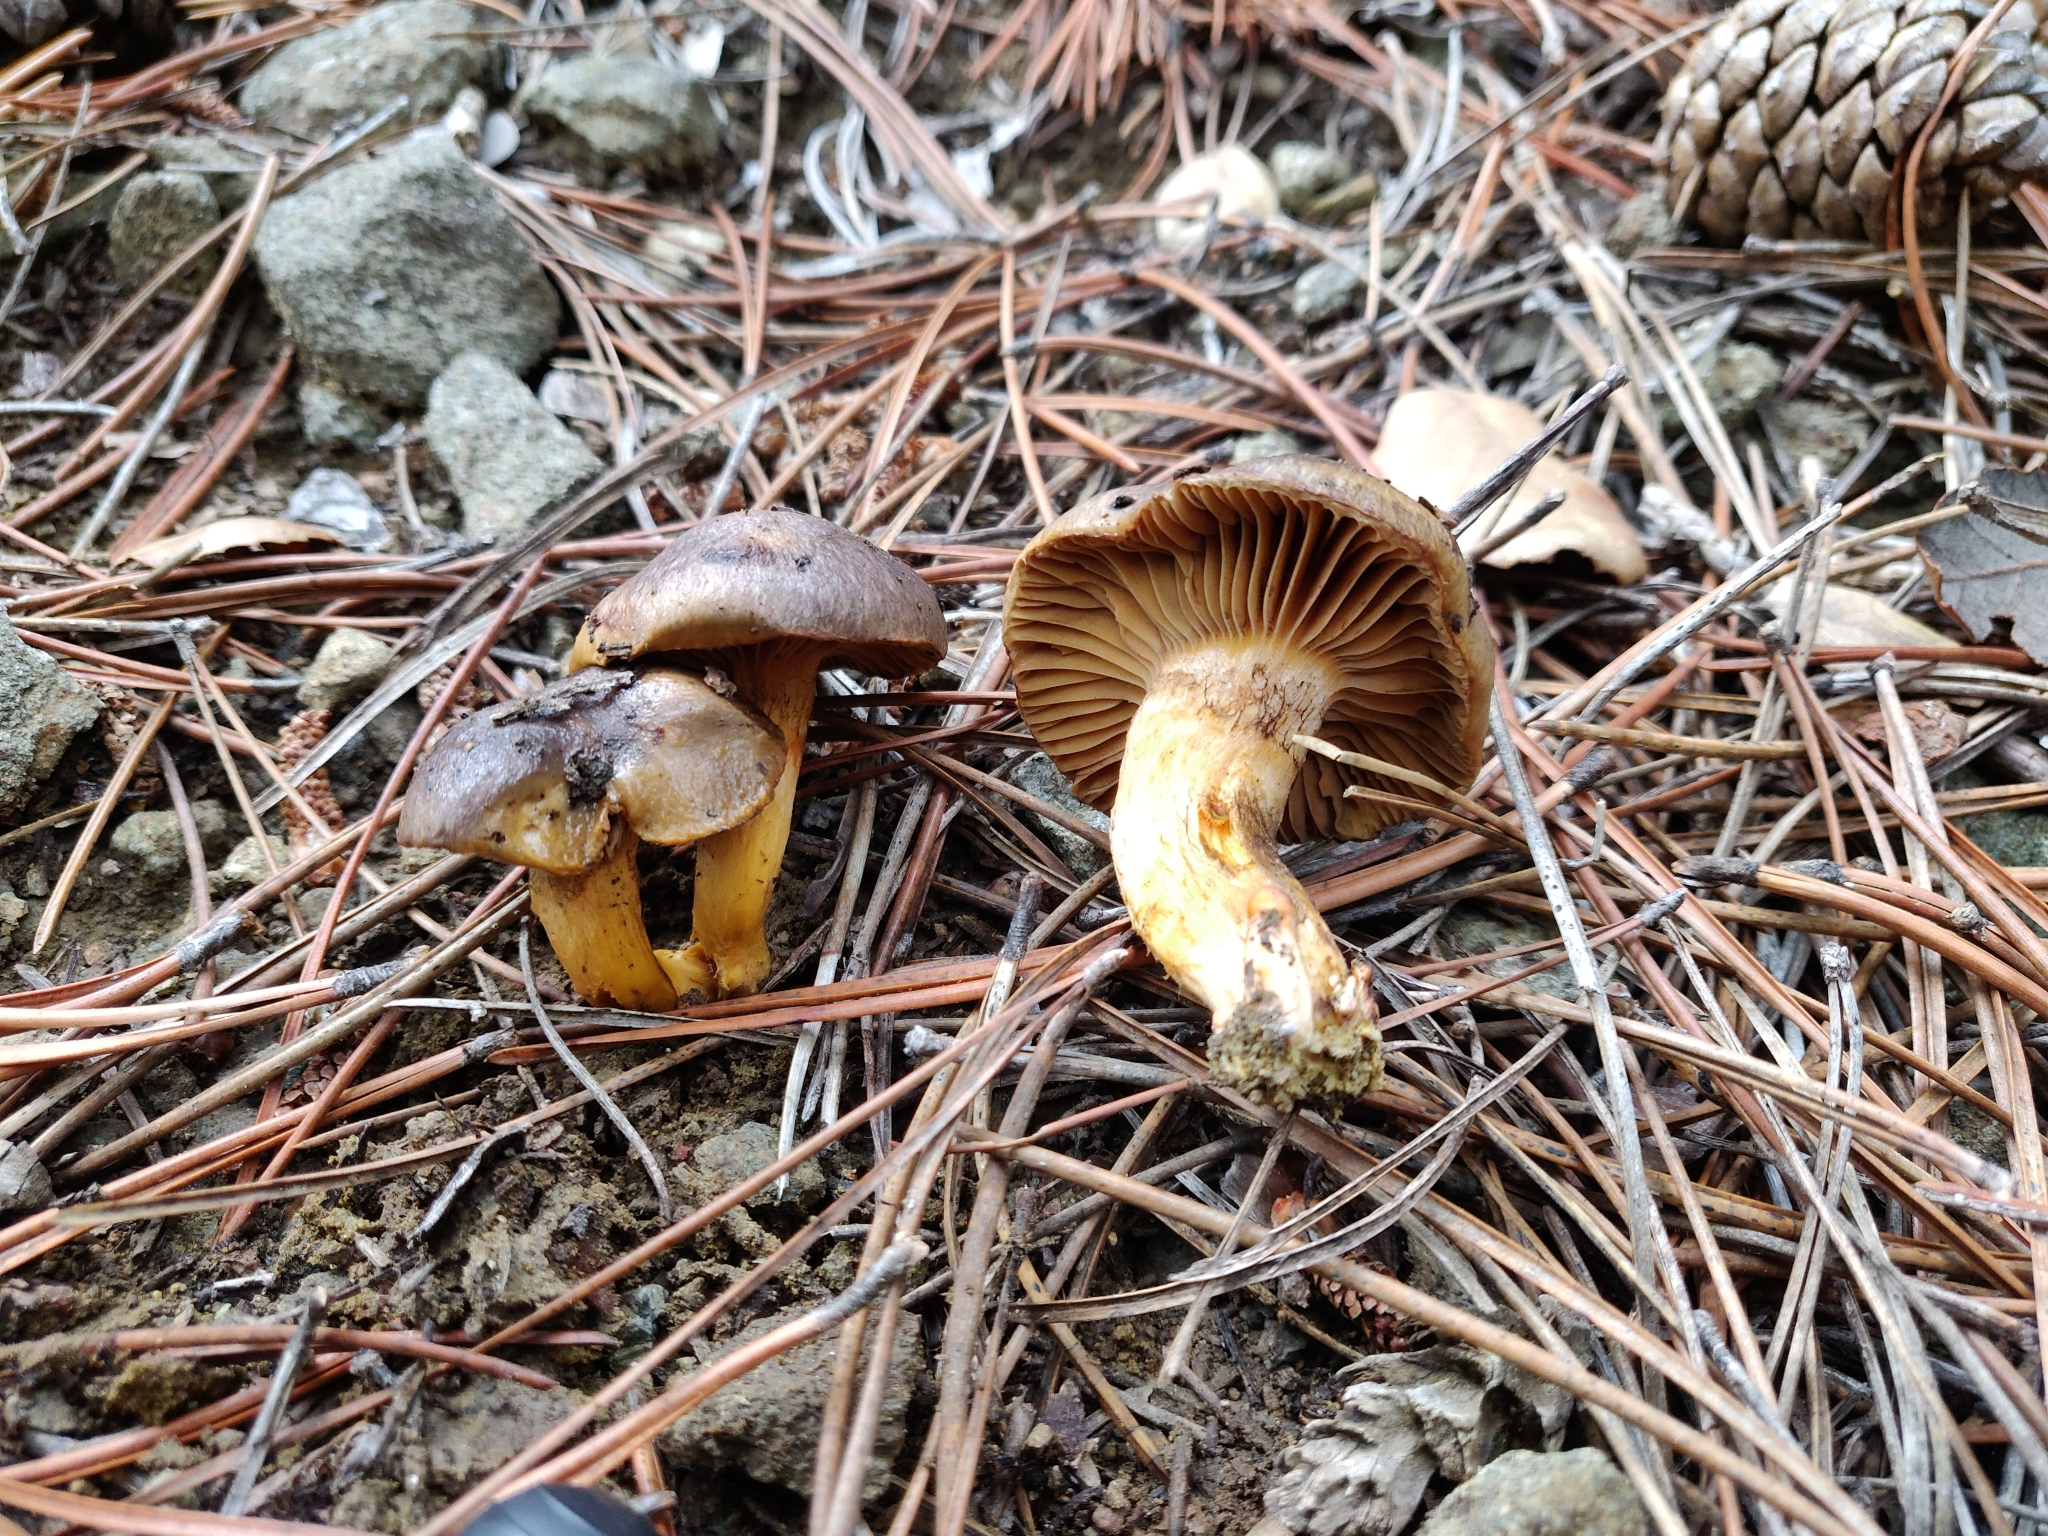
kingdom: Fungi
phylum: Basidiomycota
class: Agaricomycetes
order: Boletales
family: Gomphidiaceae
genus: Chroogomphus
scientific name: Chroogomphus mediterraneus
